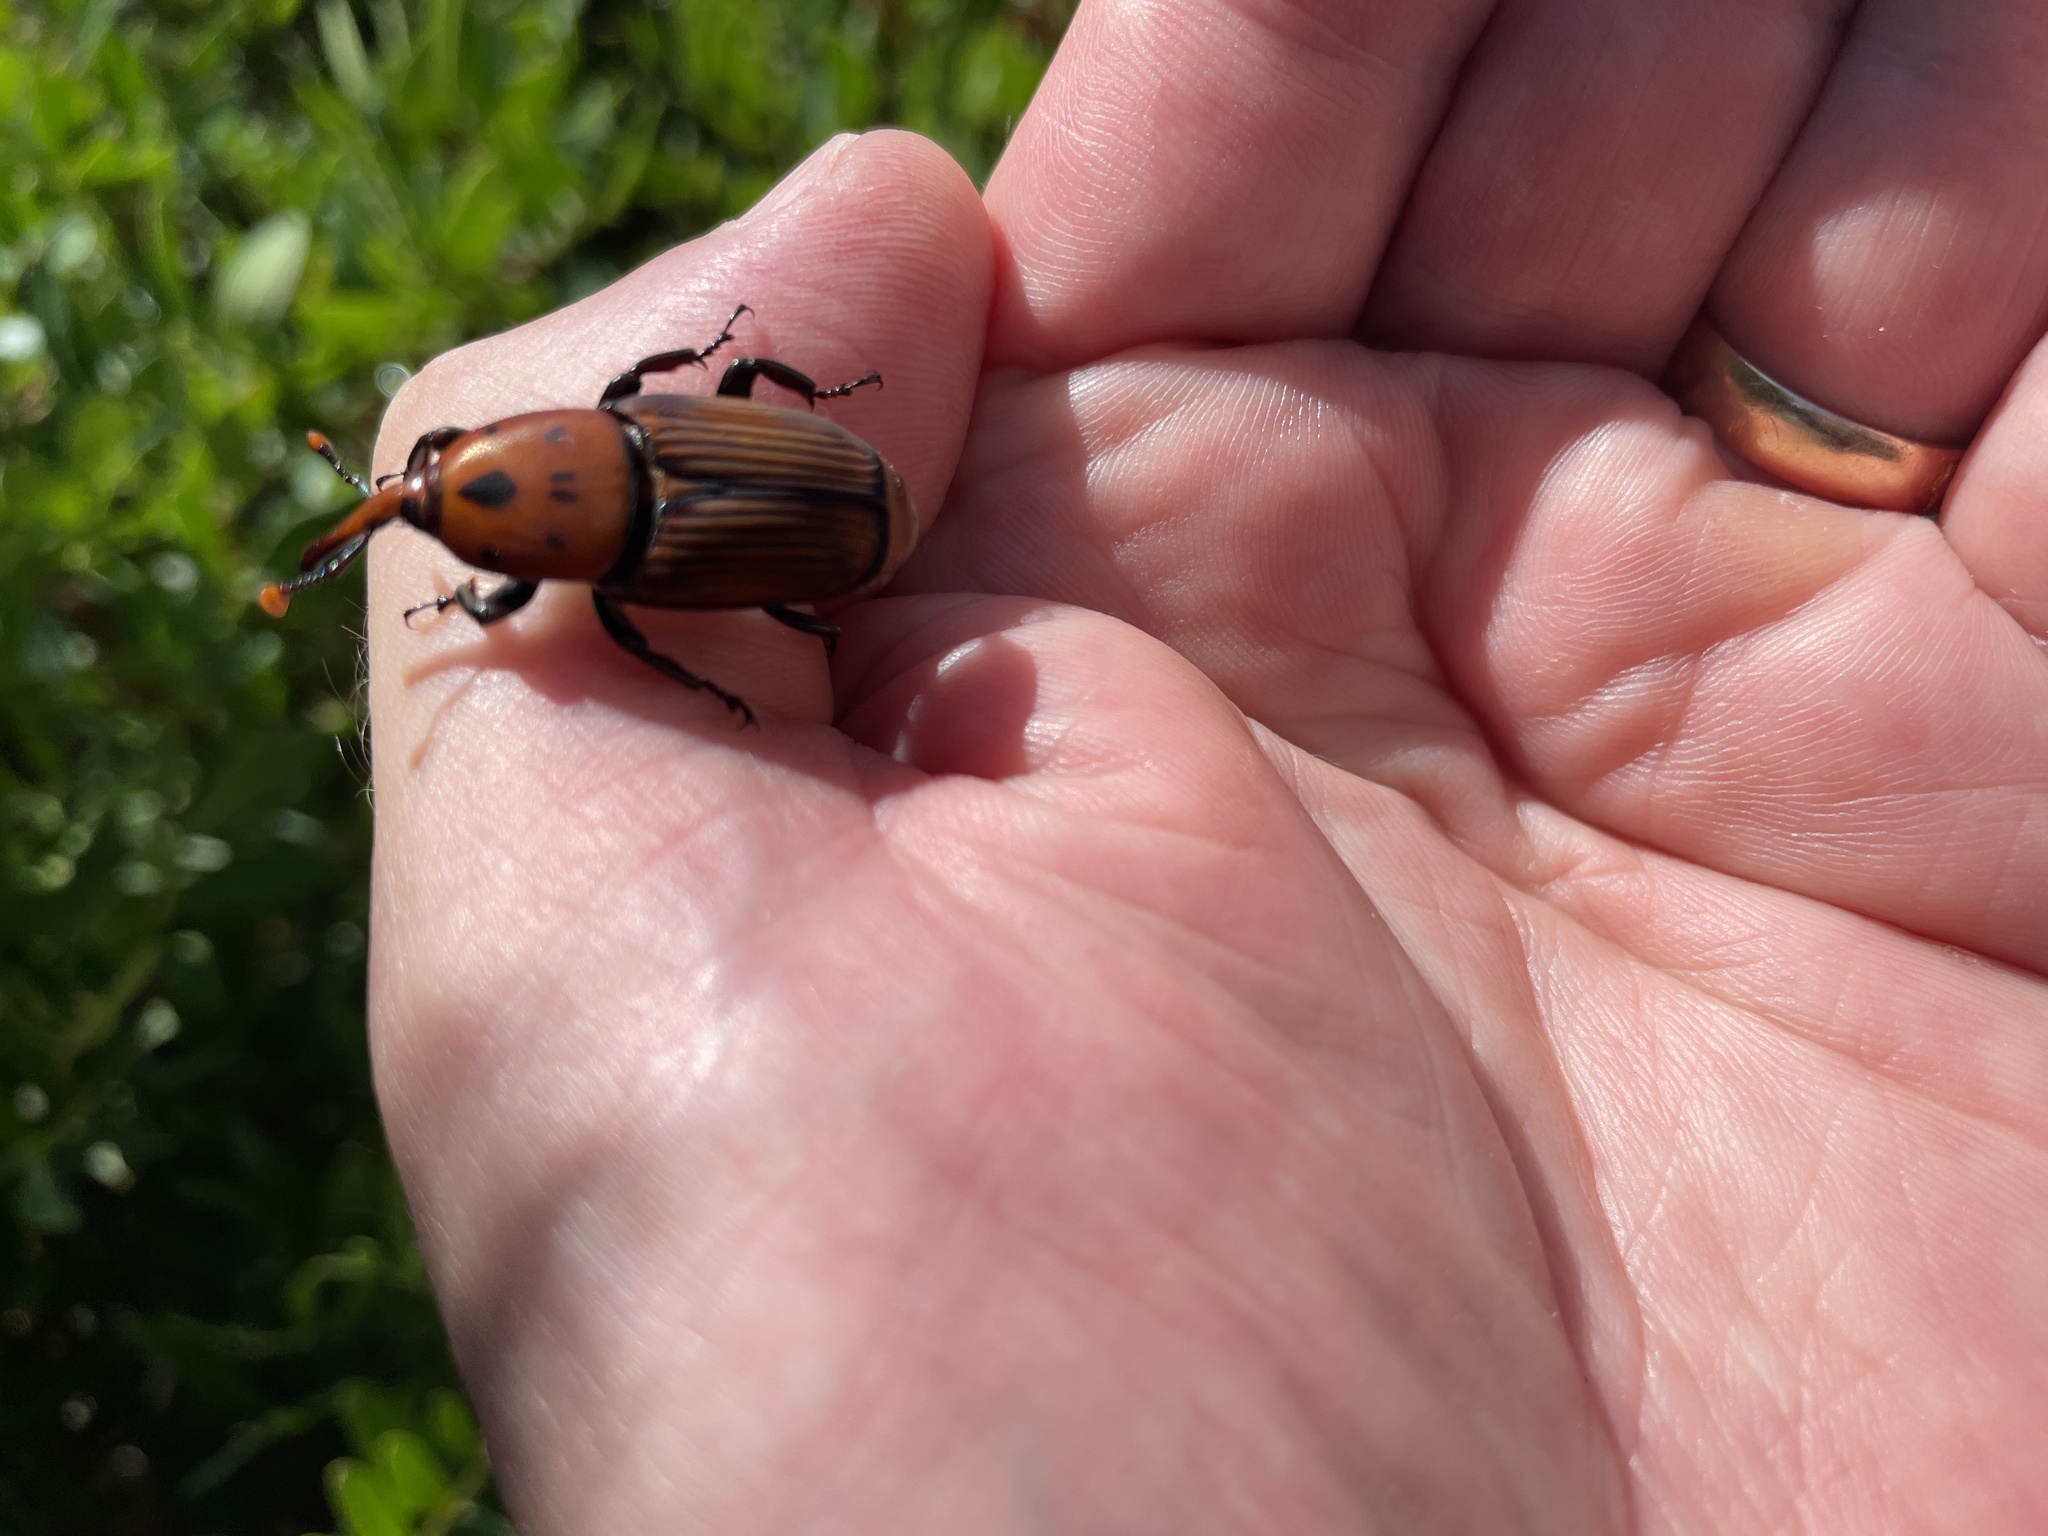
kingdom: Animalia
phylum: Arthropoda
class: Insecta
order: Coleoptera
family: Dryophthoridae
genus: Rhynchophorus
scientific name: Rhynchophorus ferrugineus
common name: Red palm weevil
